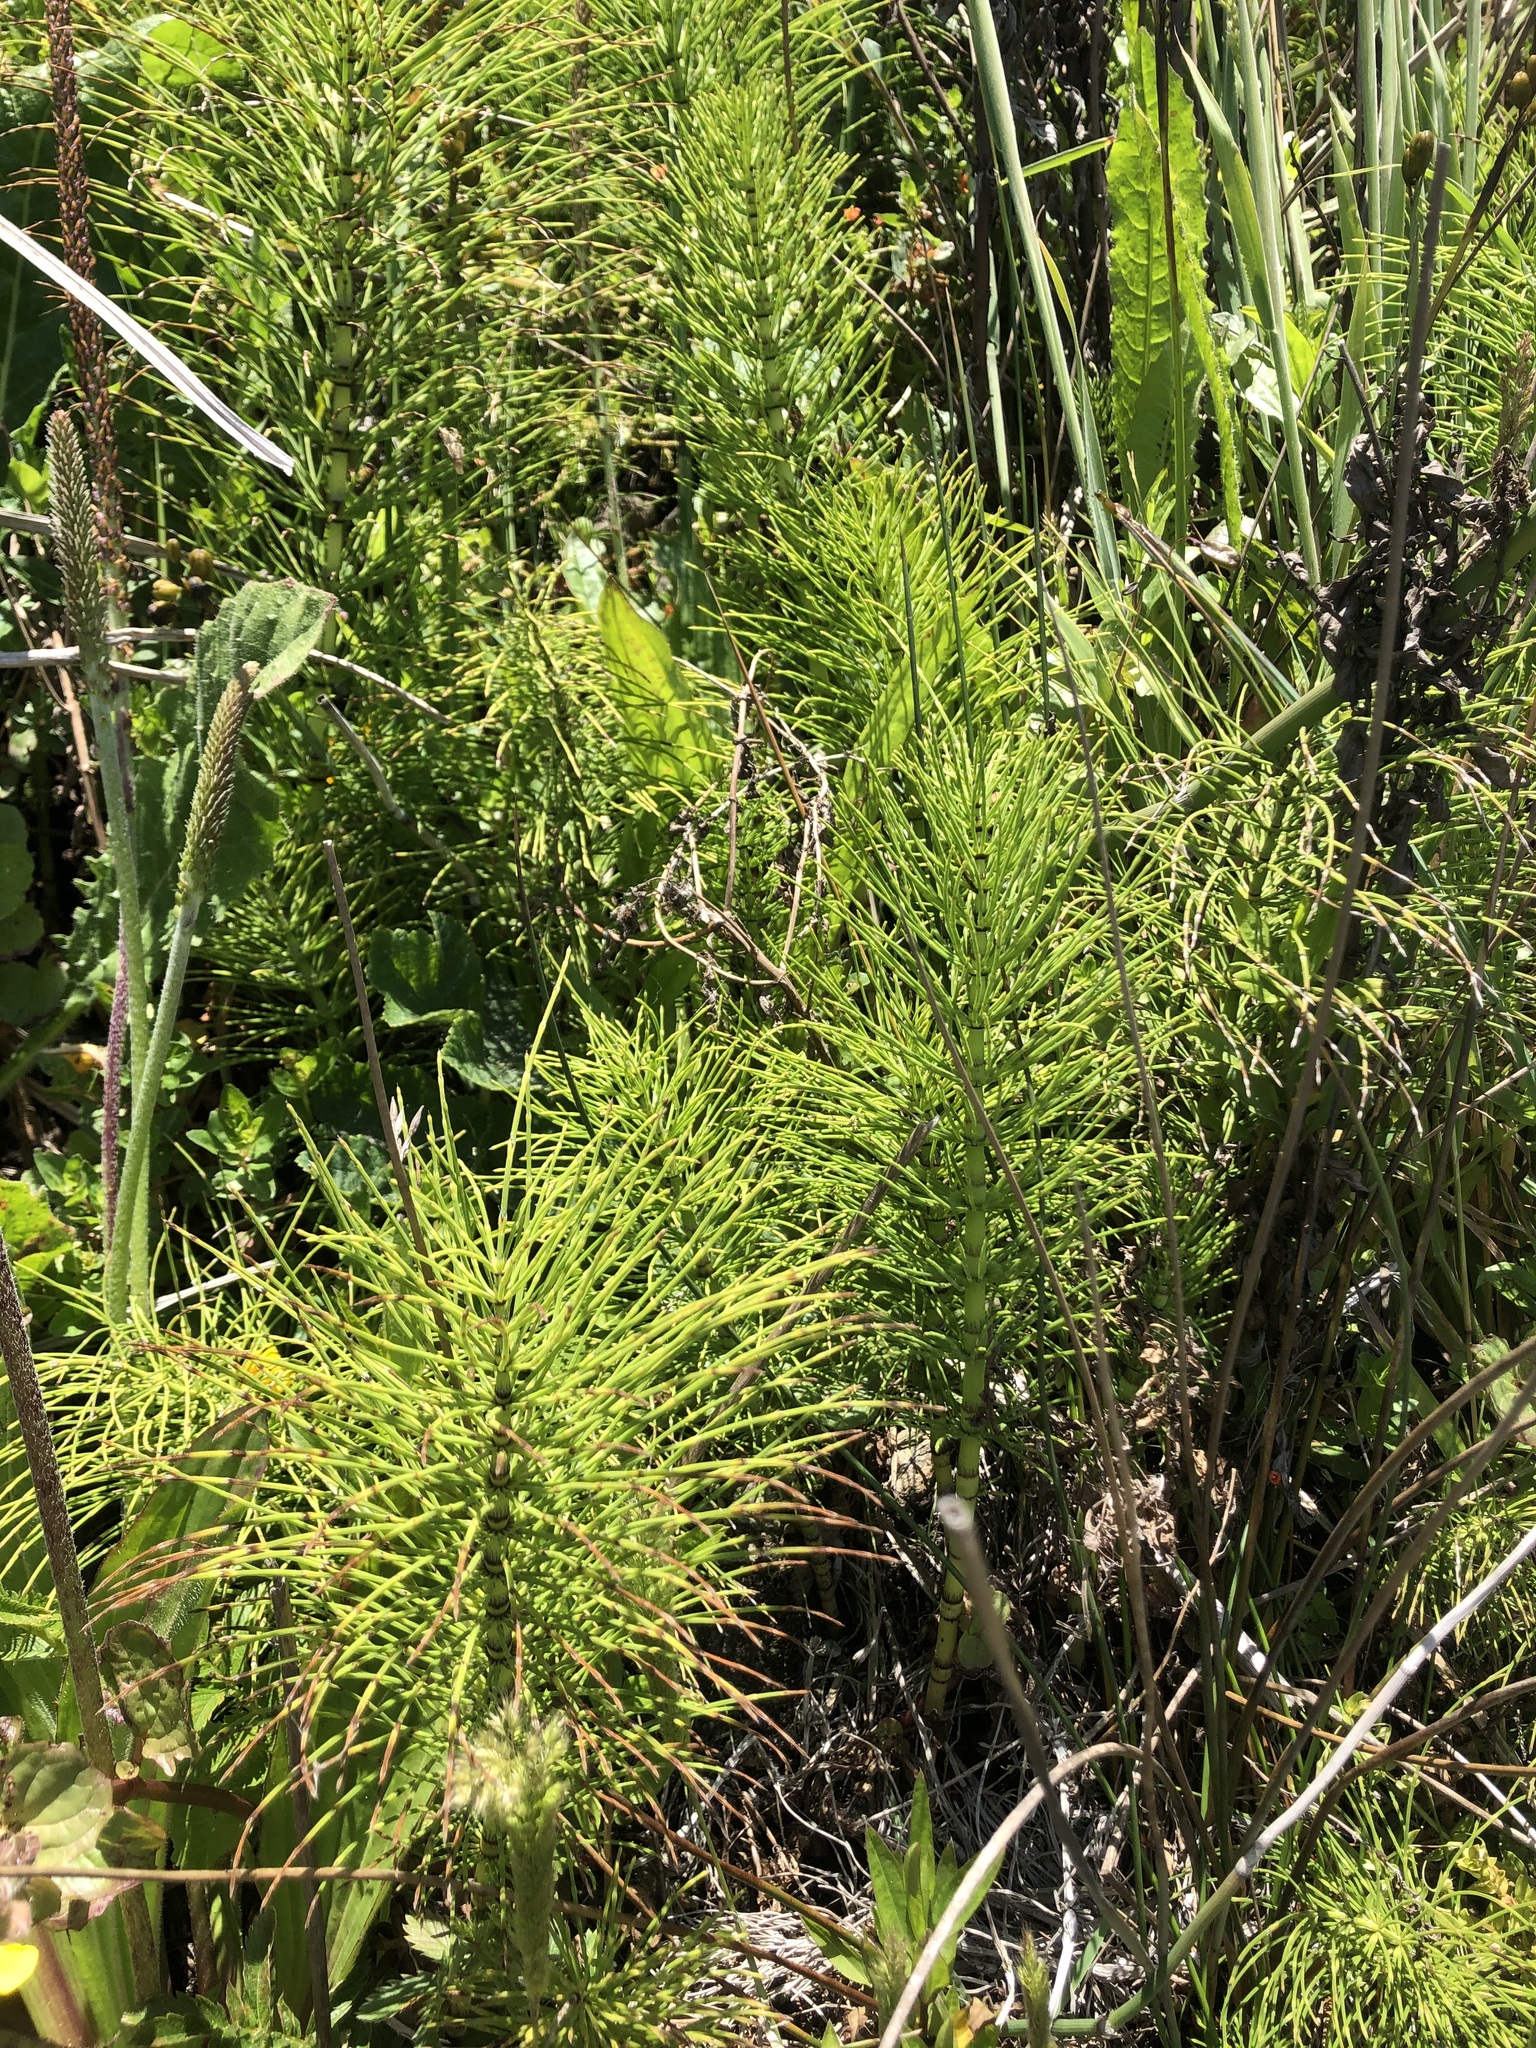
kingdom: Plantae
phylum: Tracheophyta
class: Polypodiopsida
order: Equisetales
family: Equisetaceae
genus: Equisetum
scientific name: Equisetum telmateia
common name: Great horsetail
